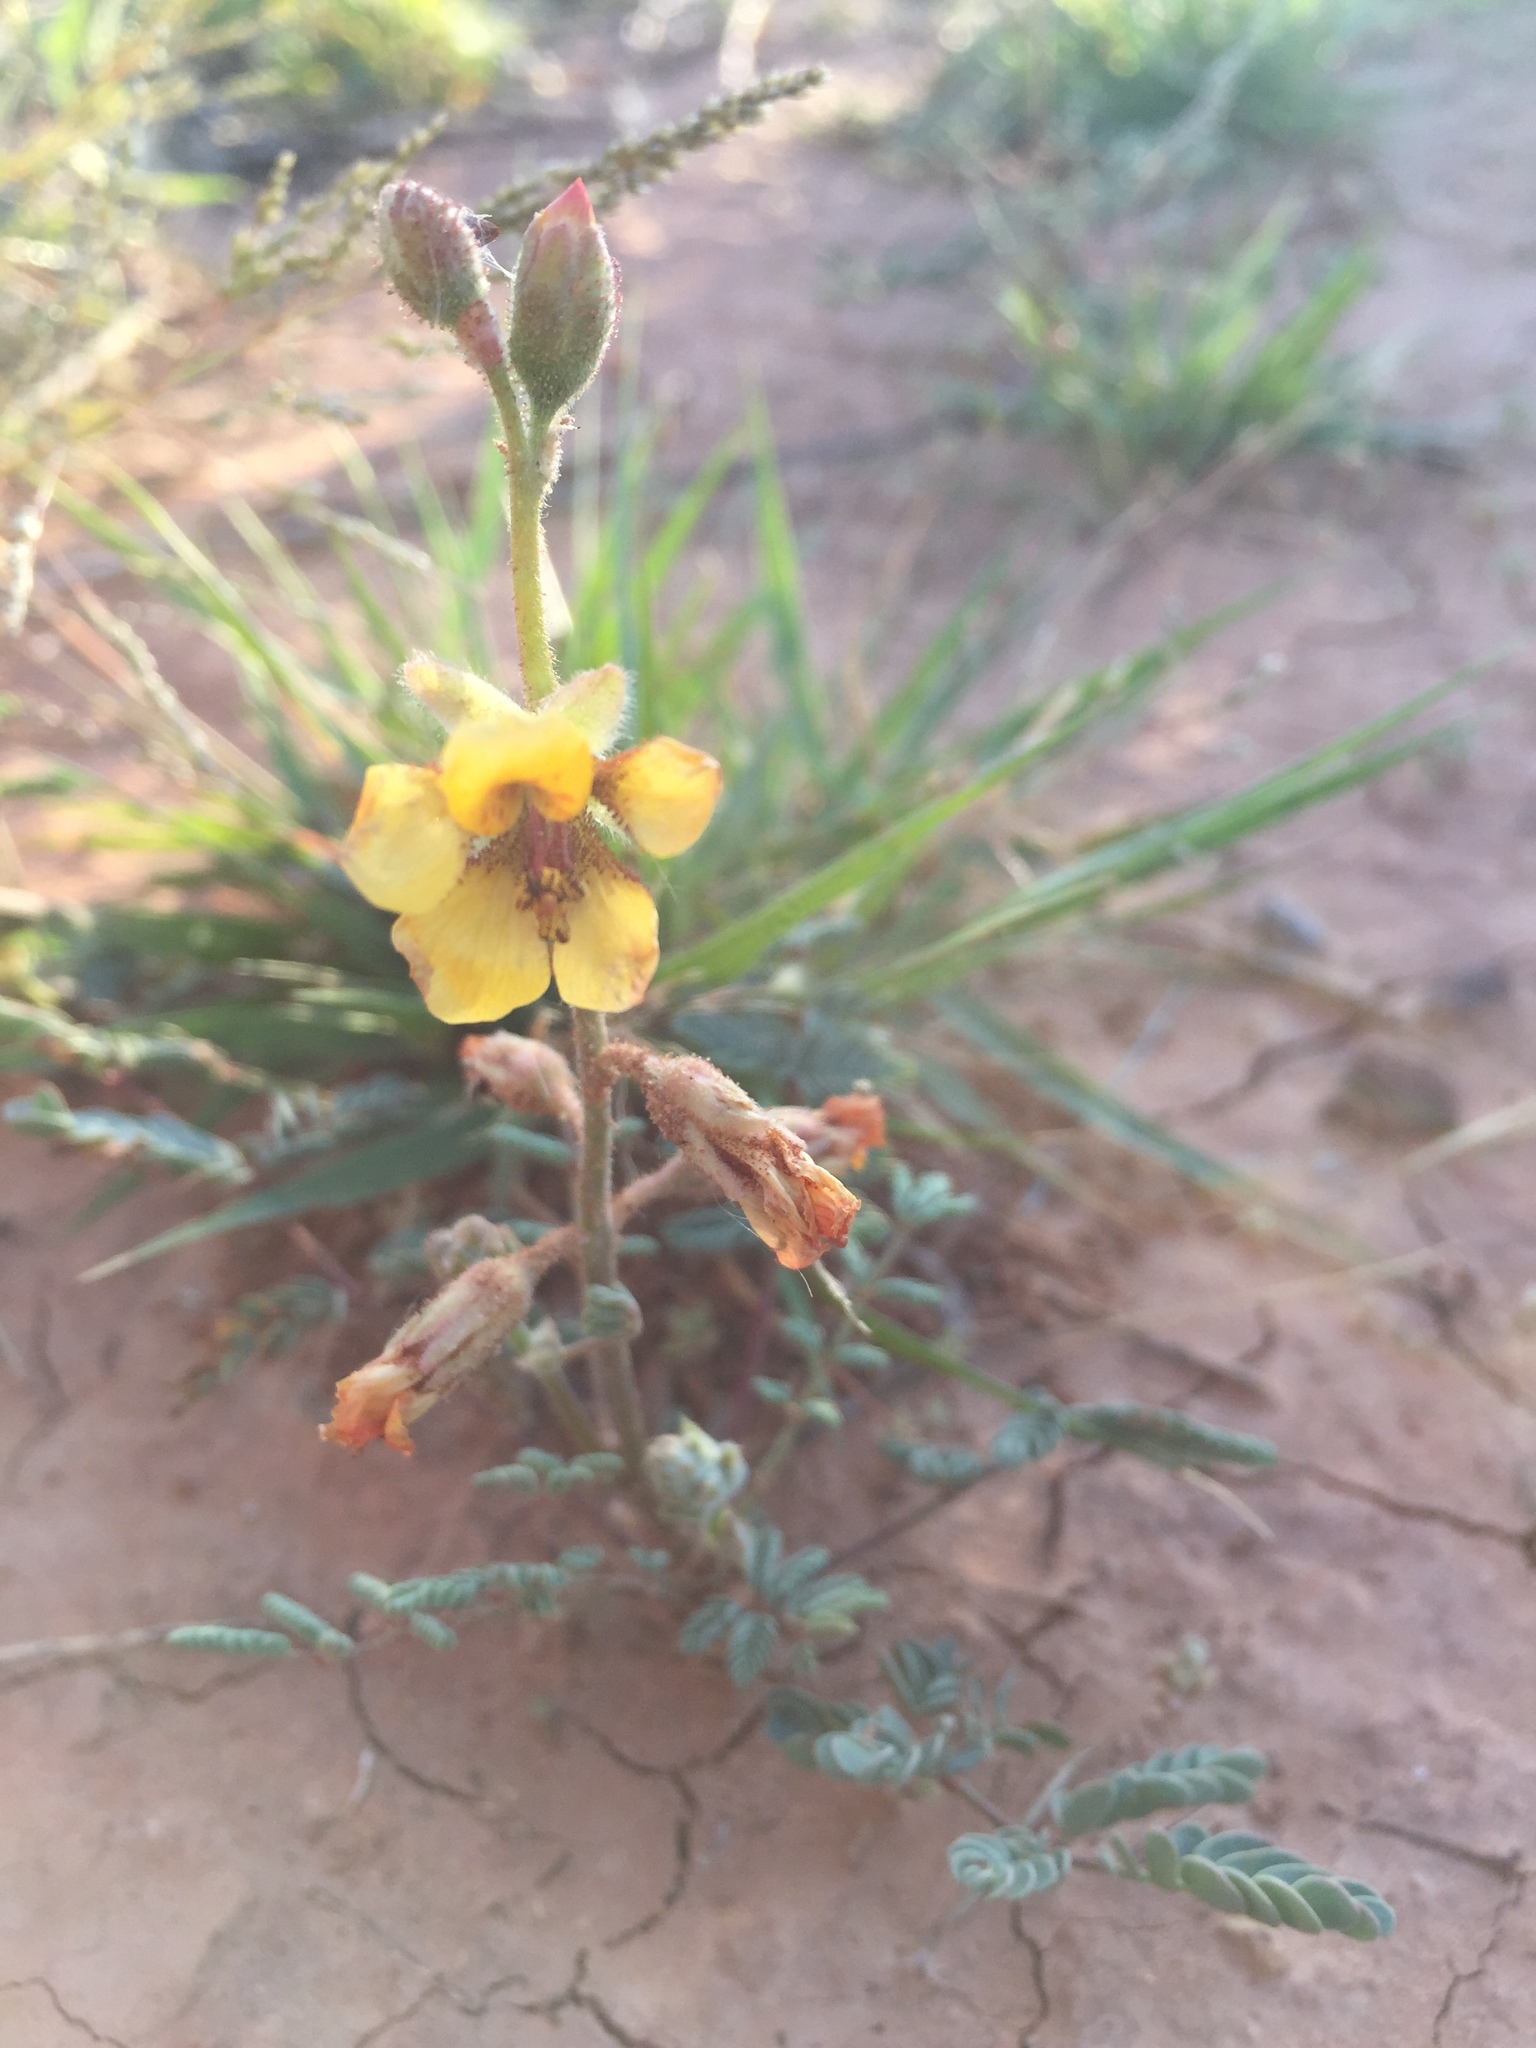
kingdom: Plantae
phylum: Tracheophyta
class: Magnoliopsida
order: Fabales
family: Fabaceae
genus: Hoffmannseggia
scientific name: Hoffmannseggia glauca
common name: Pignut
